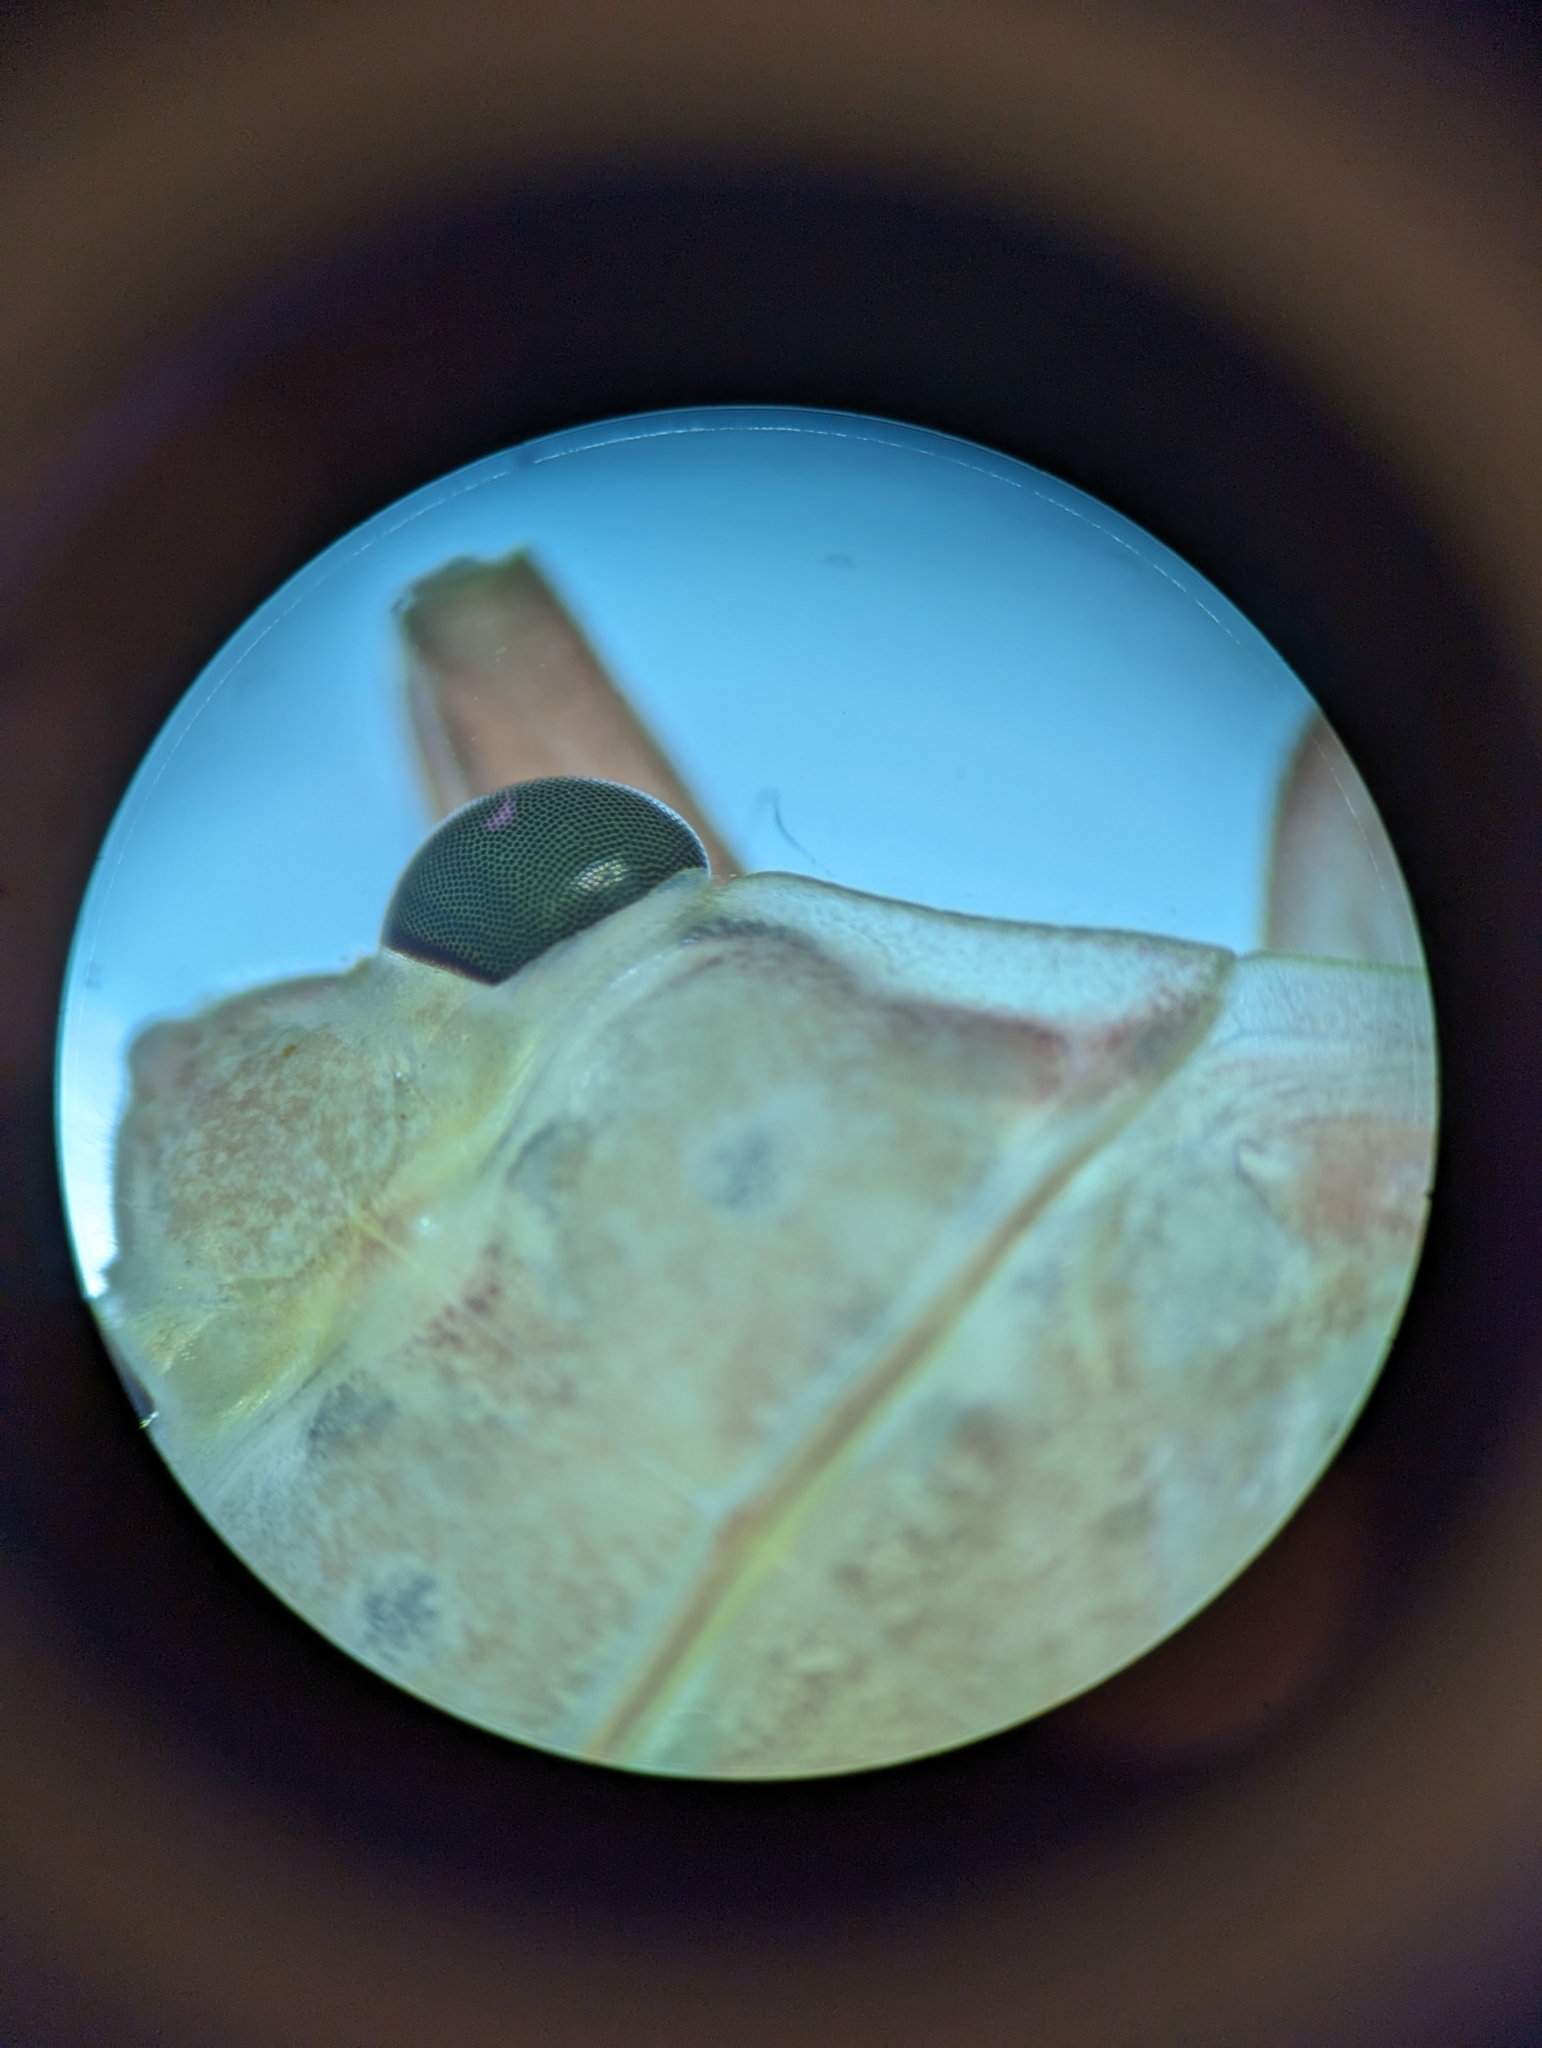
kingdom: Animalia
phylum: Arthropoda
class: Insecta
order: Hemiptera
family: Belostomatidae
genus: Abedus
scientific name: Abedus indentatus
